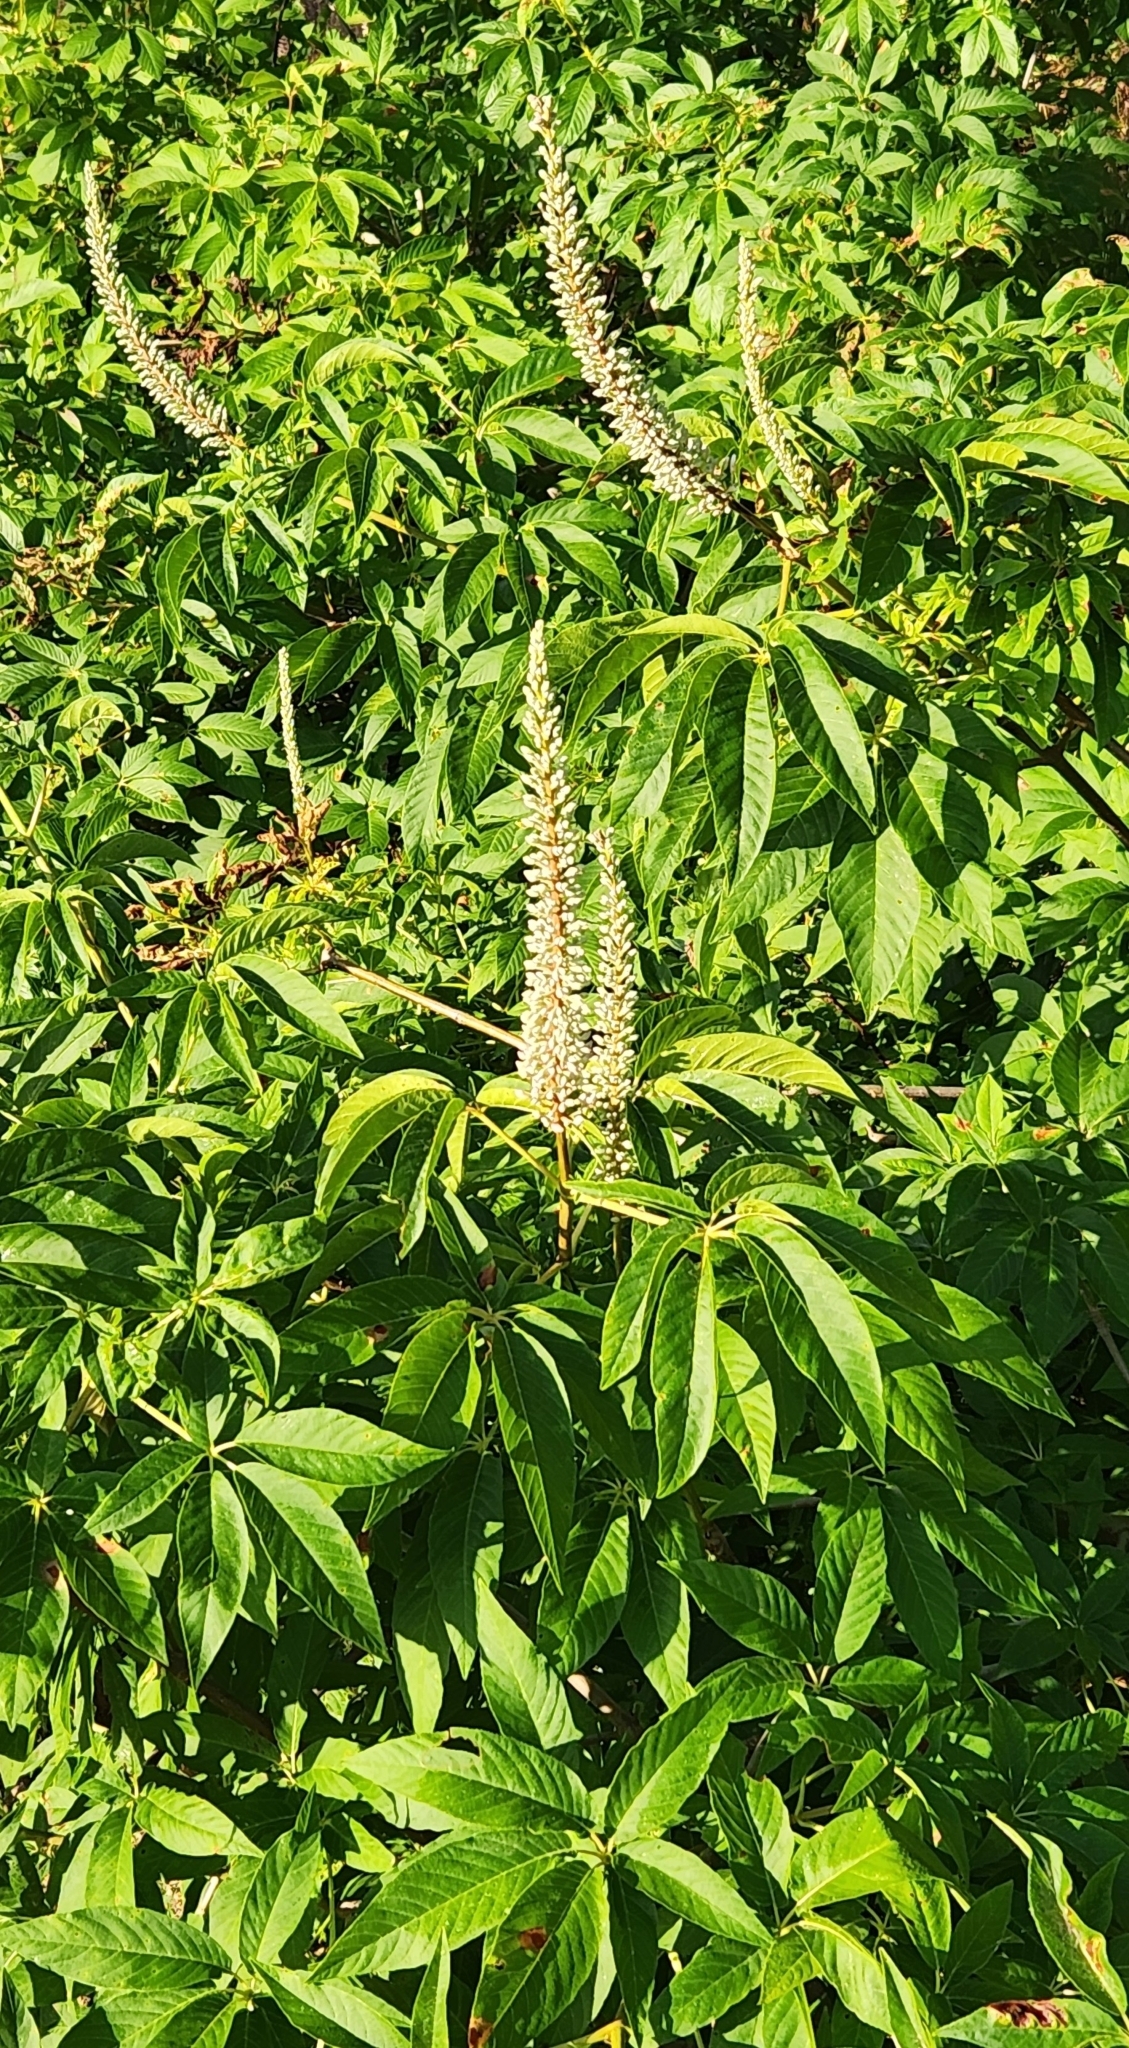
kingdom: Plantae
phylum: Tracheophyta
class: Magnoliopsida
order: Sapindales
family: Sapindaceae
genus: Aesculus
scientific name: Aesculus californica
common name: California buckeye
